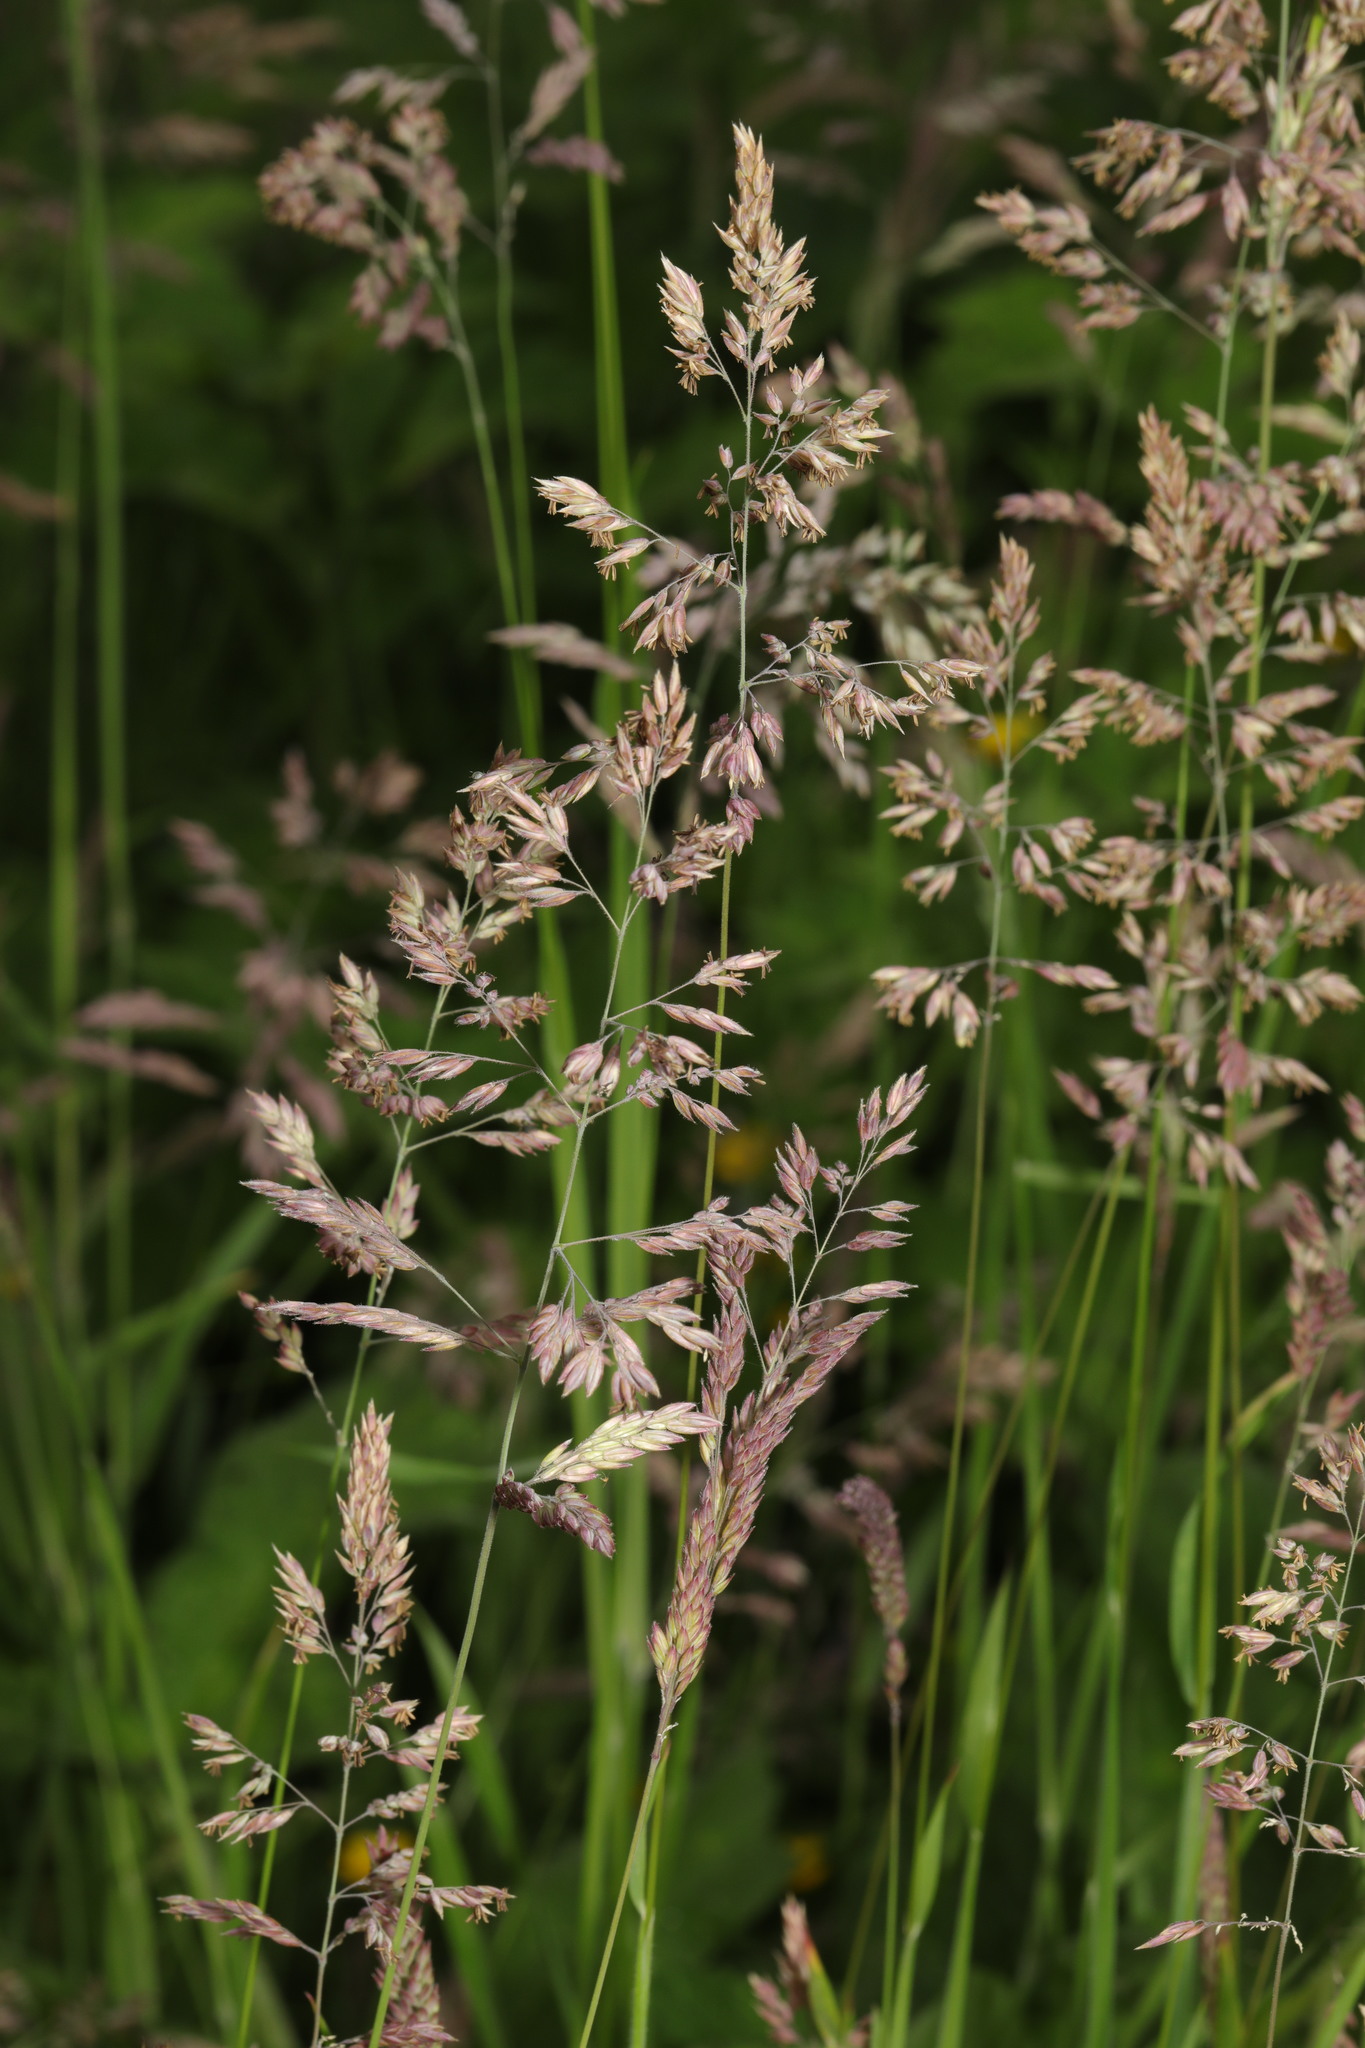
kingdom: Plantae
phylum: Tracheophyta
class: Liliopsida
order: Poales
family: Poaceae
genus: Holcus
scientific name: Holcus lanatus
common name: Yorkshire-fog
